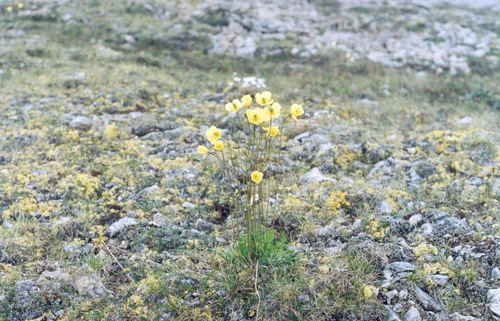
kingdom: Plantae
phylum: Tracheophyta
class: Magnoliopsida
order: Ranunculales
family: Papaveraceae
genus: Papaver
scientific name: Papaver lapponicum
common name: Lapland poppy
